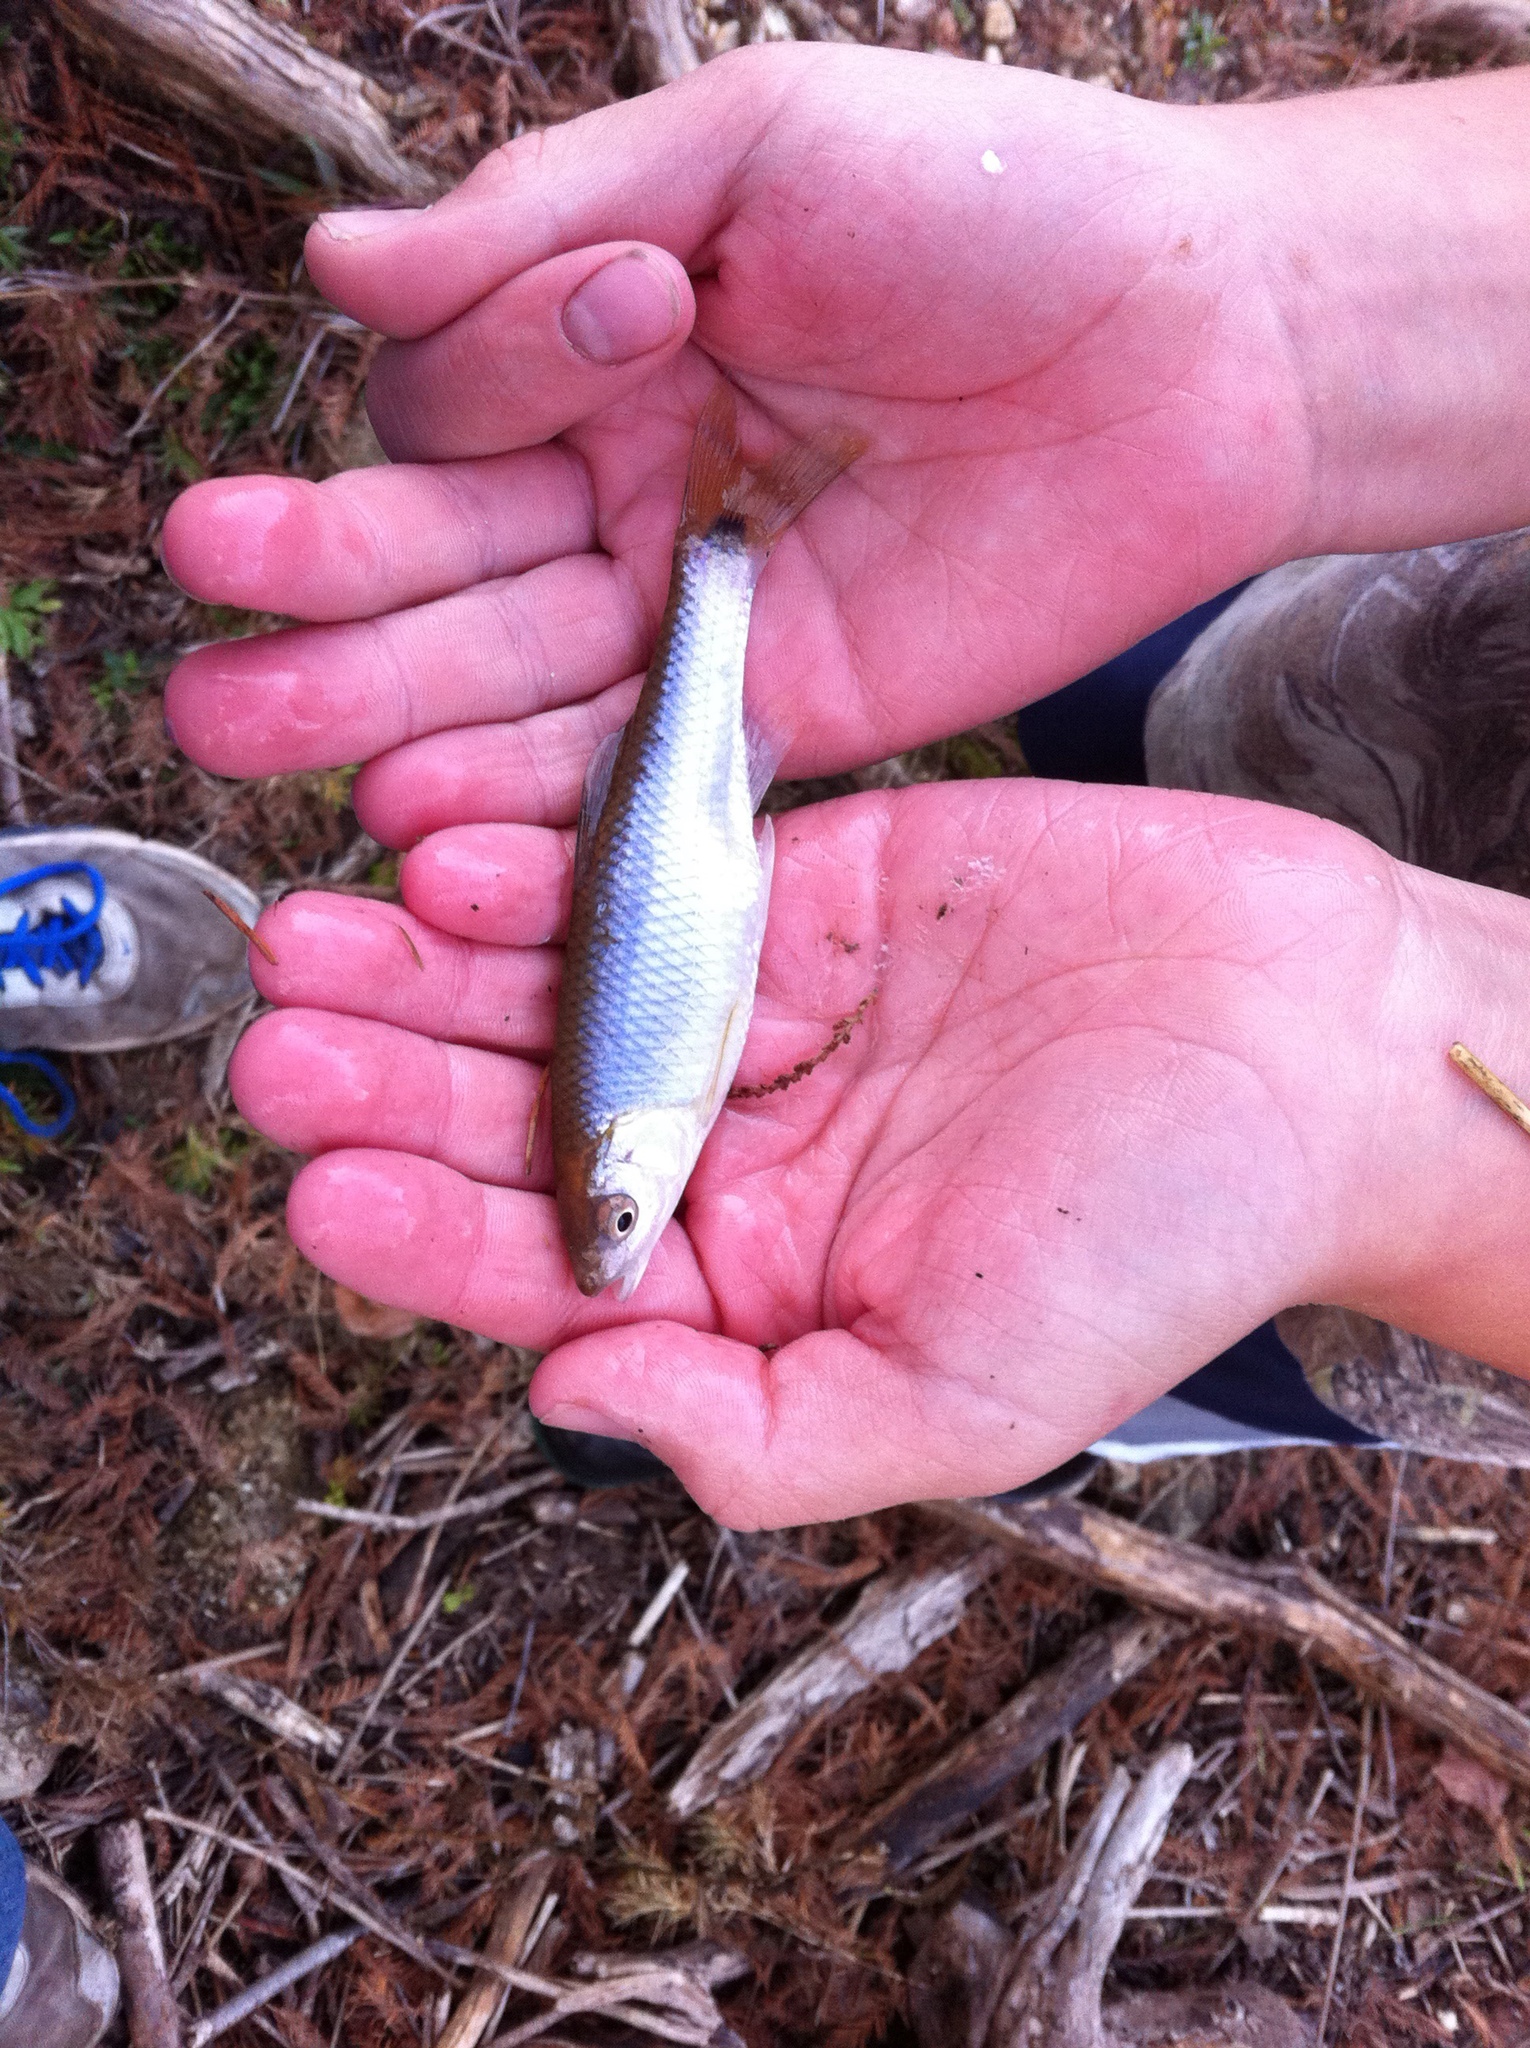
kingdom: Animalia
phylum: Chordata
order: Cypriniformes
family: Cyprinidae
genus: Cyprinella
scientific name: Cyprinella venusta
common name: Blacktail shiner
